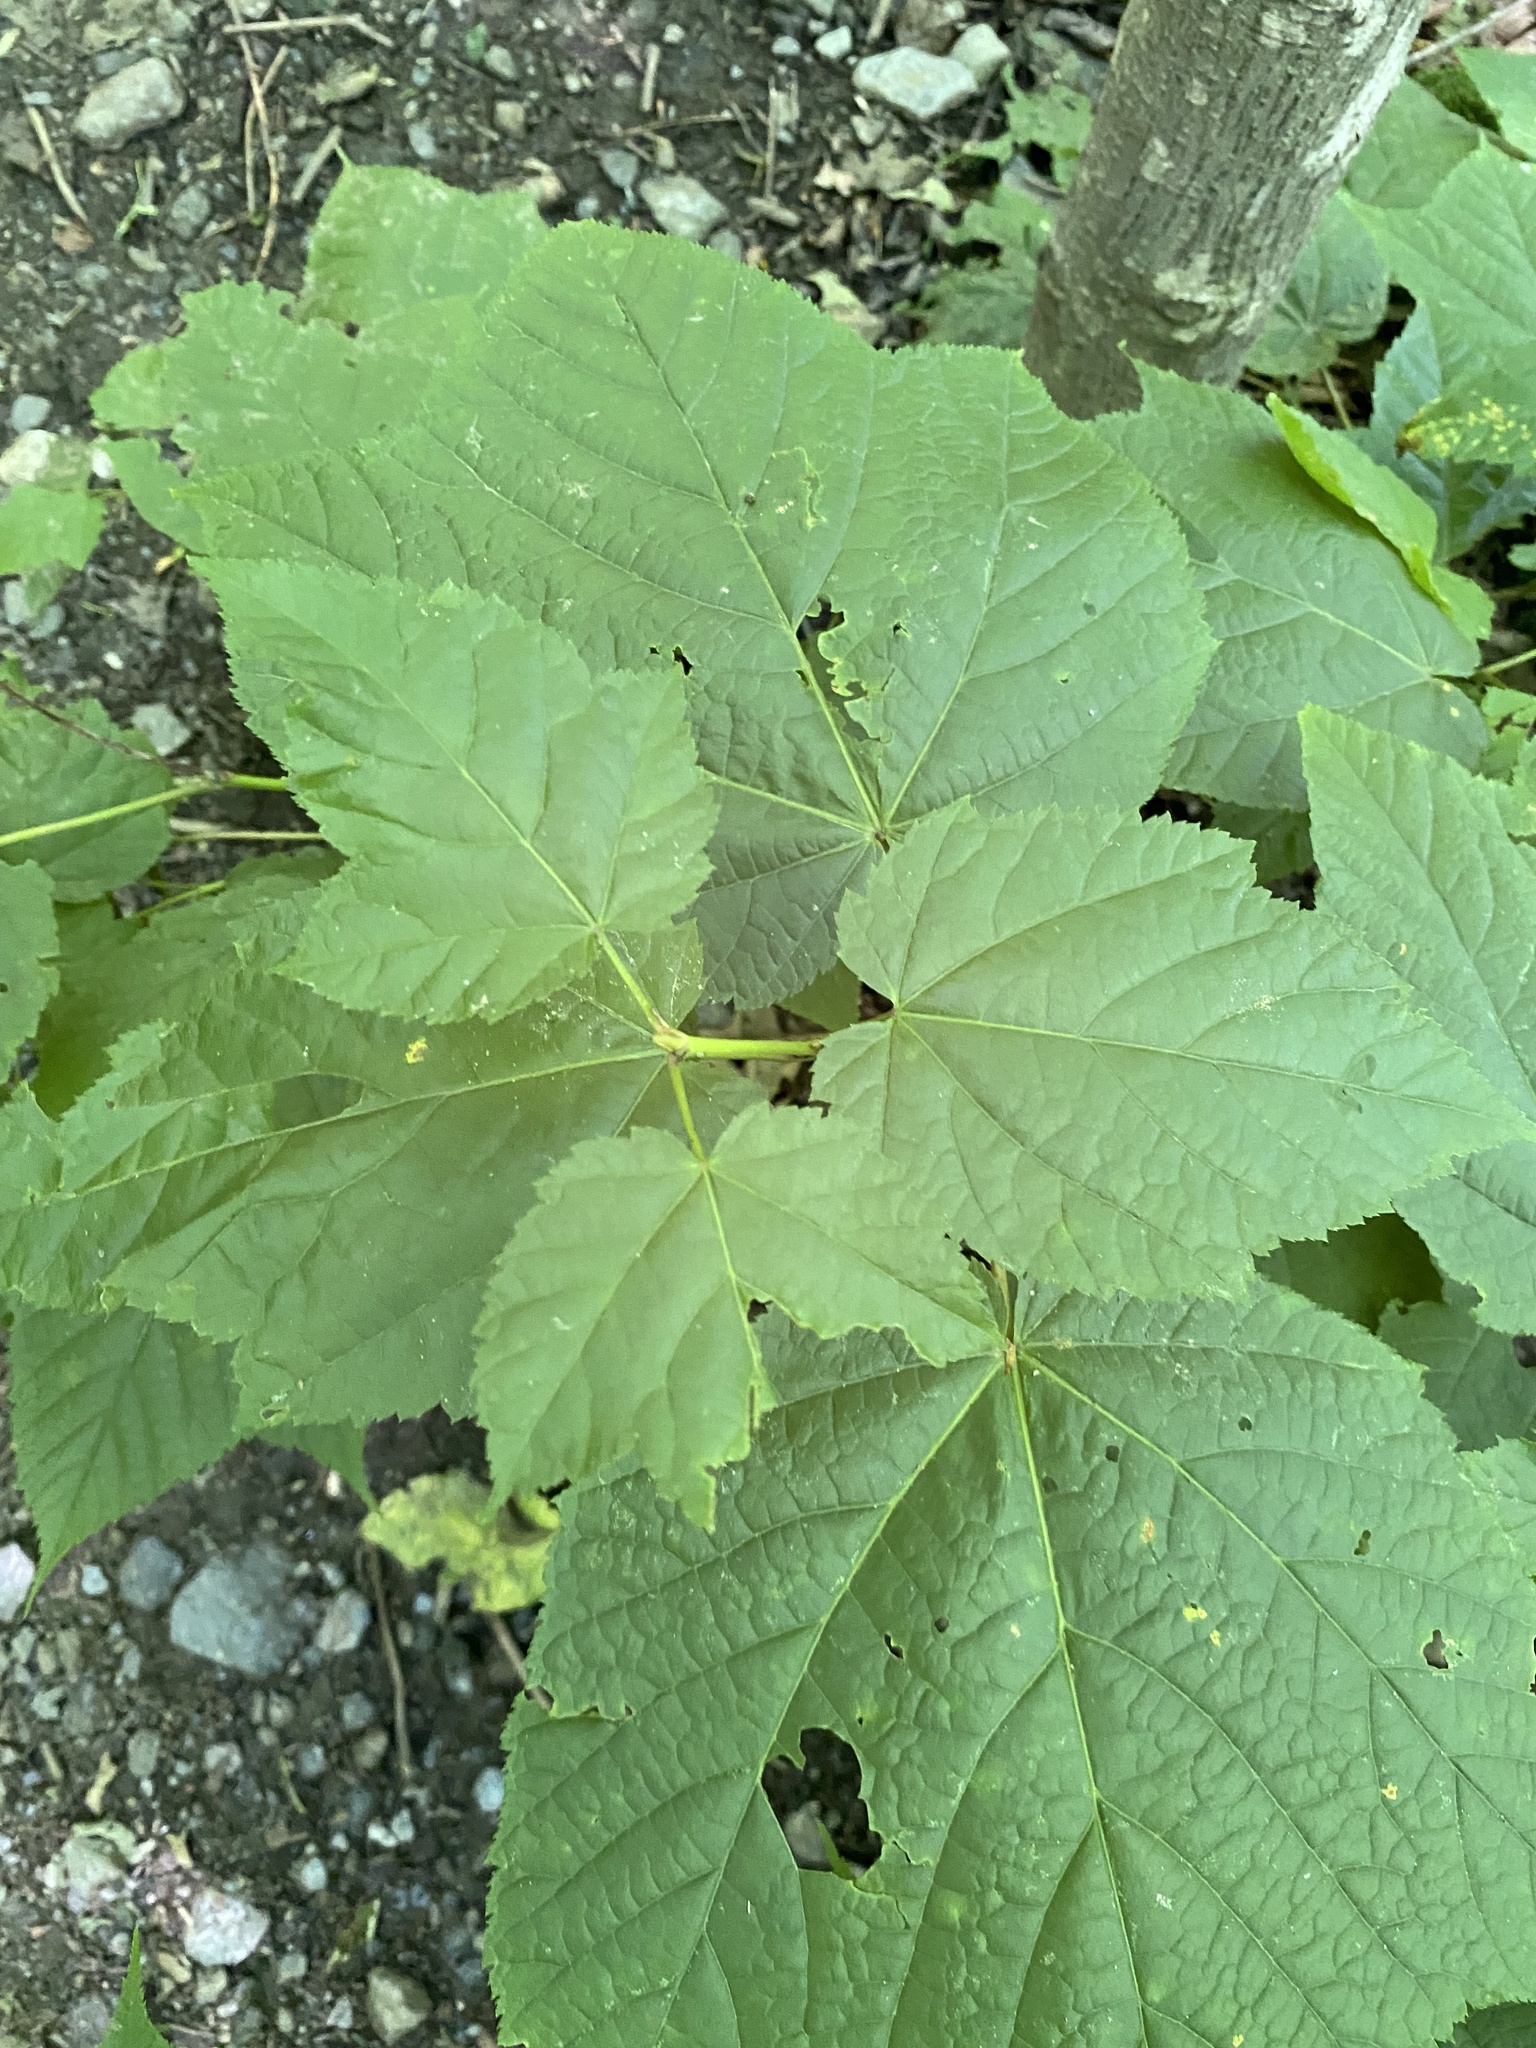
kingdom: Plantae
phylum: Tracheophyta
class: Magnoliopsida
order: Sapindales
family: Sapindaceae
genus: Acer
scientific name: Acer pensylvanicum
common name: Moosewood
